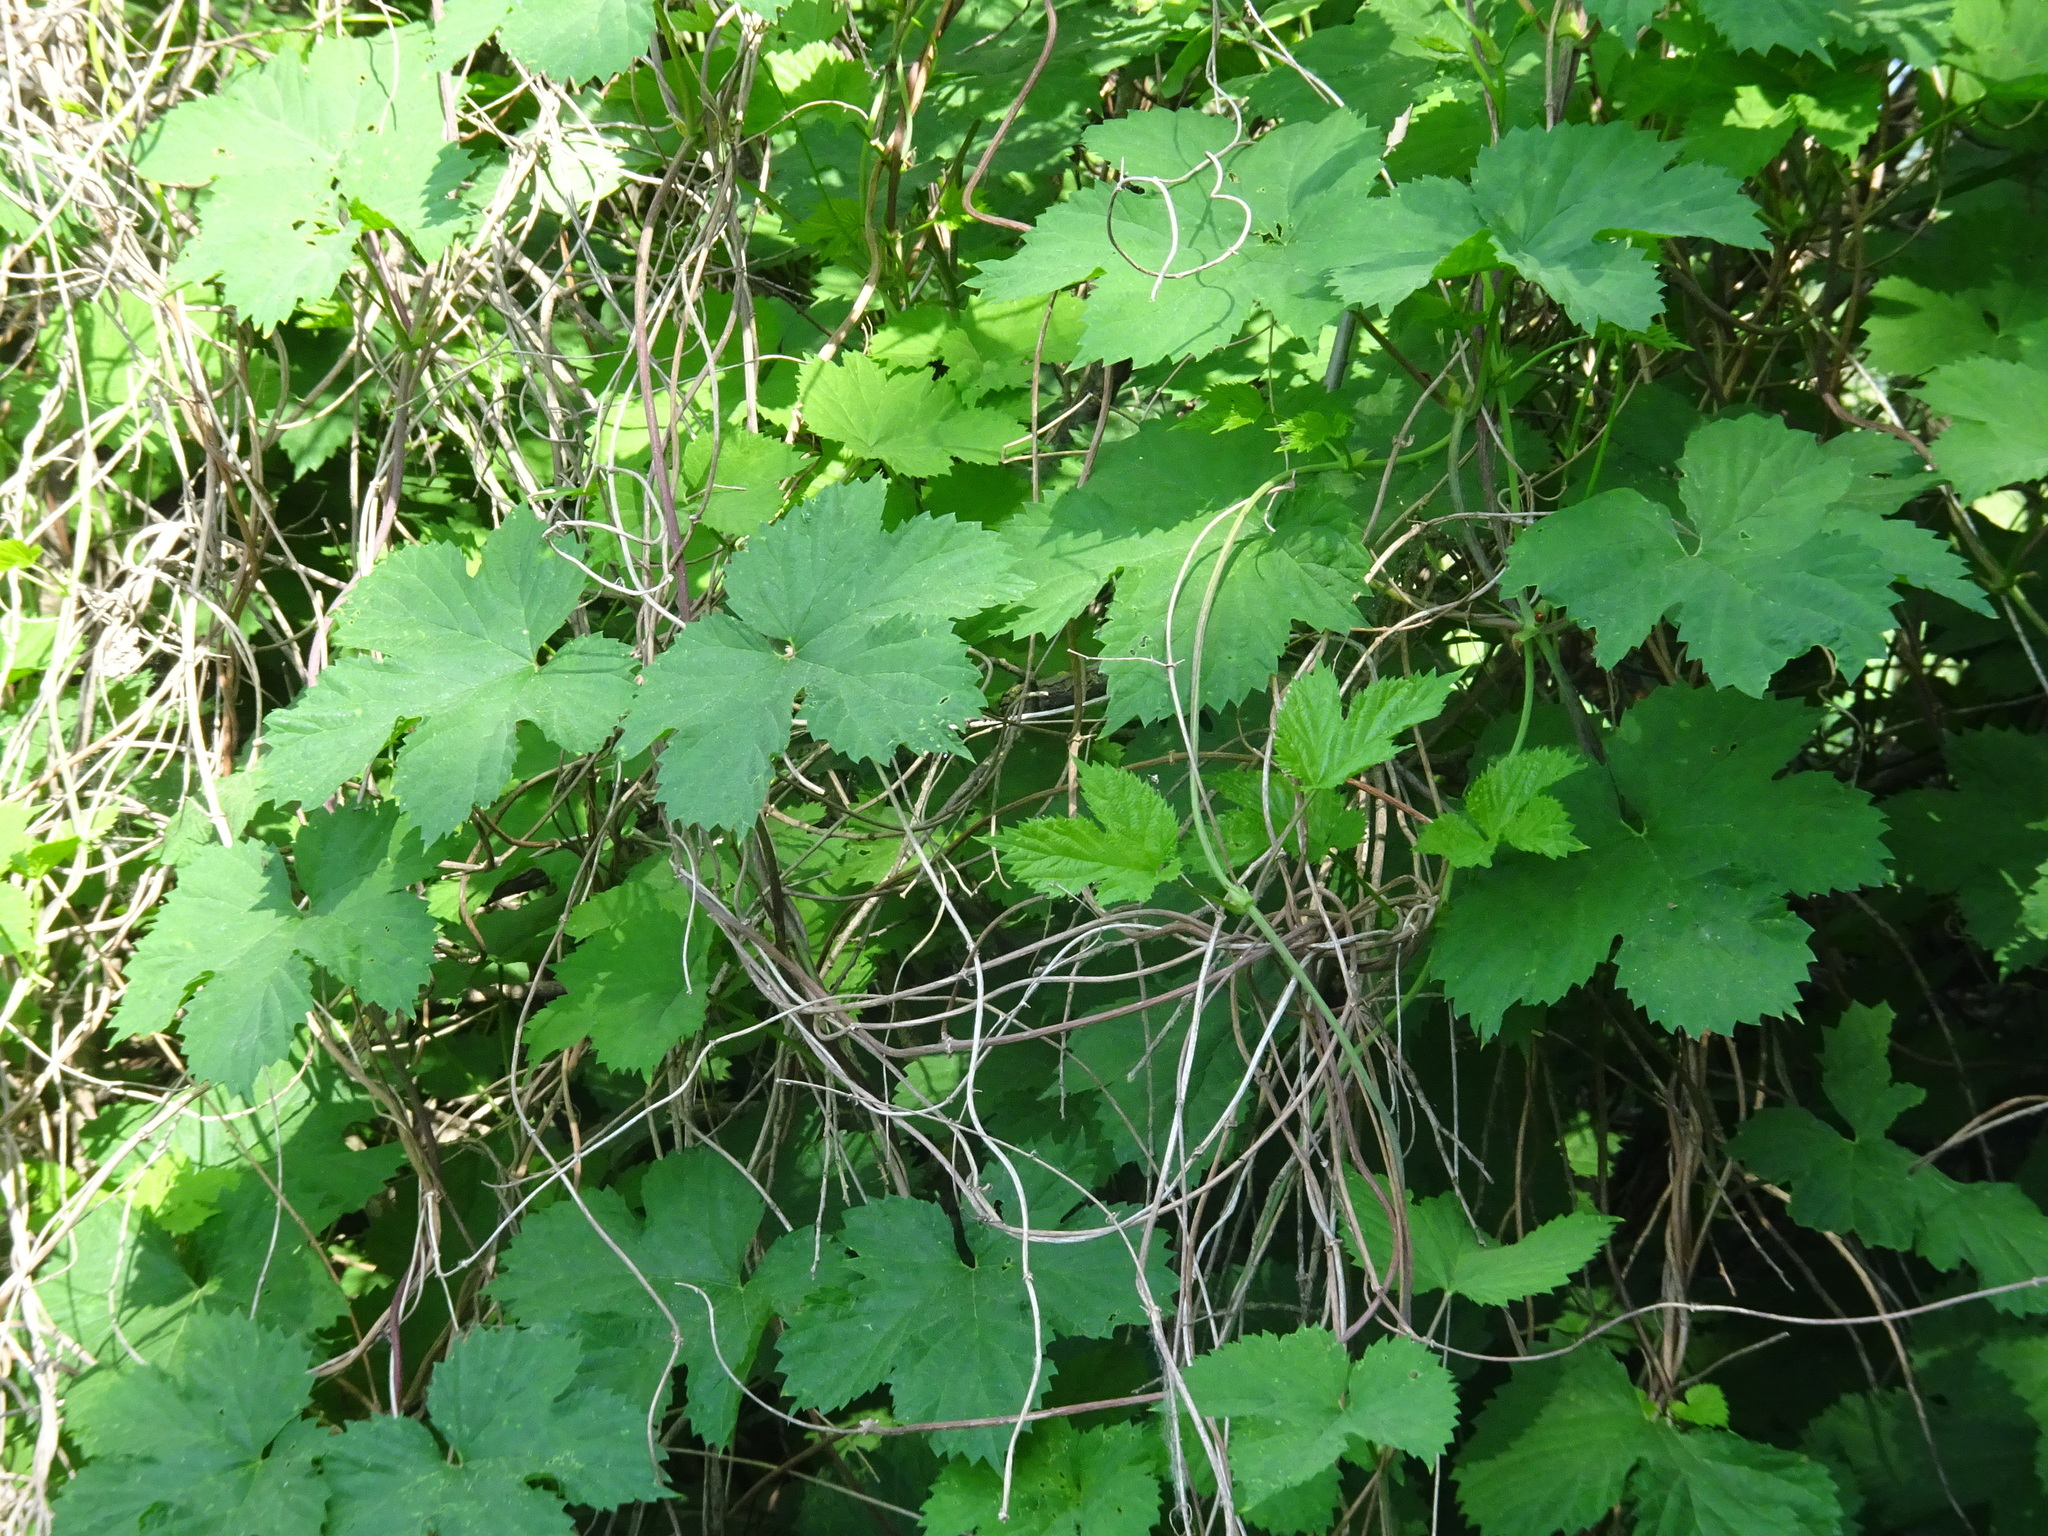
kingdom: Plantae
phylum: Tracheophyta
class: Magnoliopsida
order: Rosales
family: Cannabaceae
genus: Humulus
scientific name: Humulus lupulus
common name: Hop
